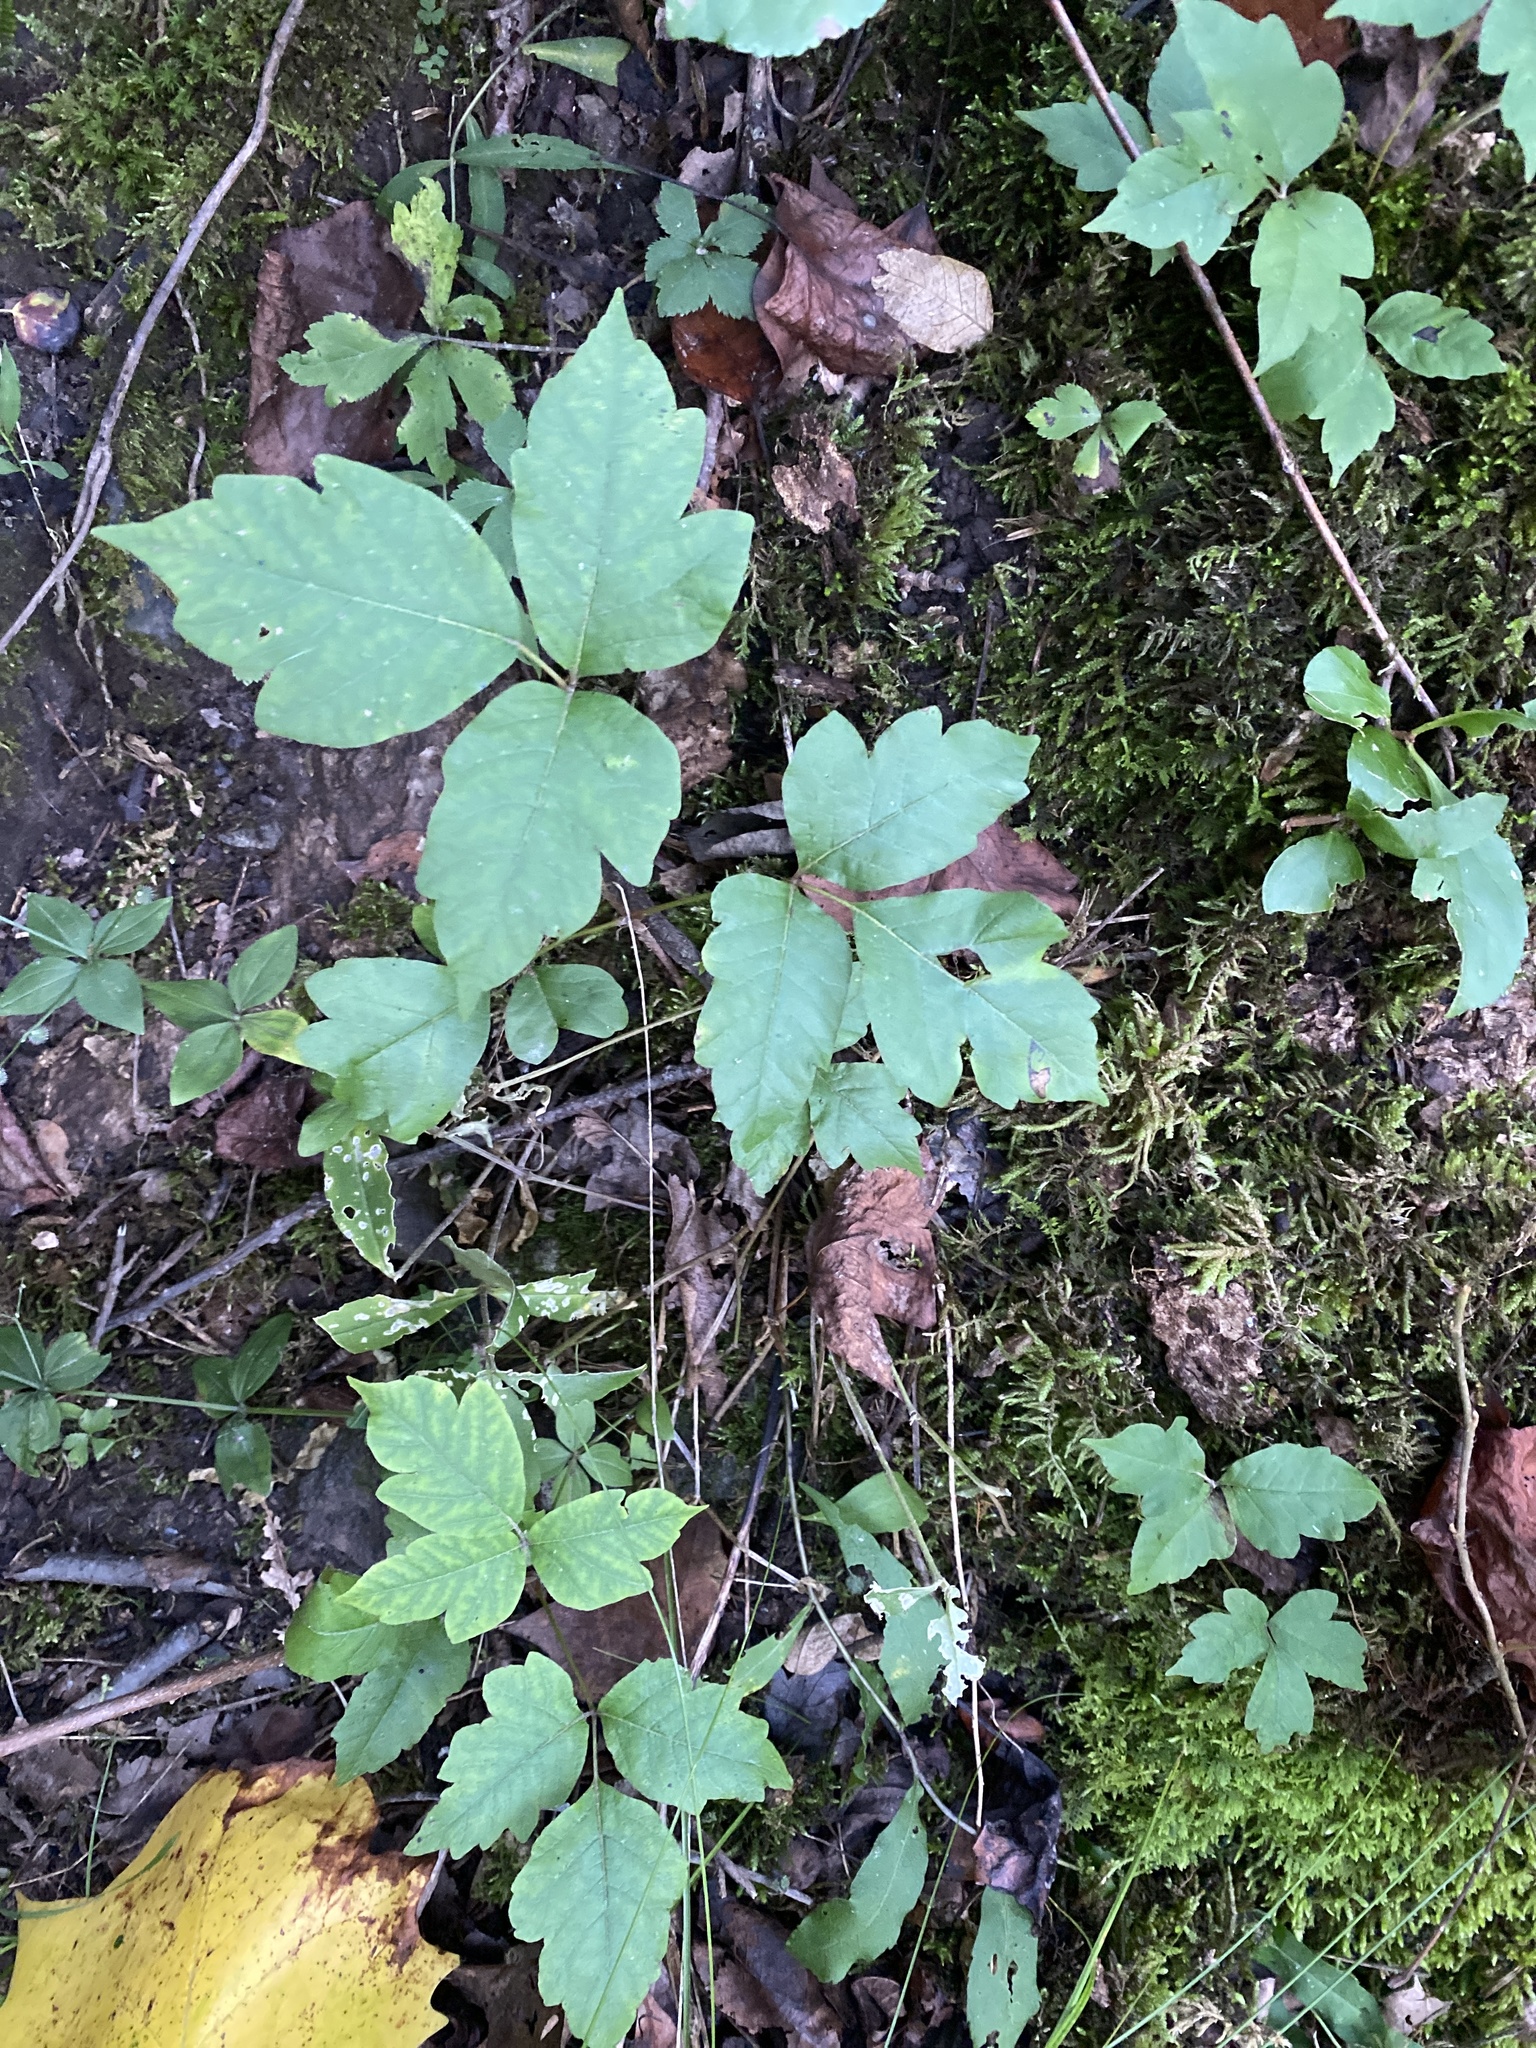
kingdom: Plantae
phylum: Tracheophyta
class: Magnoliopsida
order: Sapindales
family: Anacardiaceae
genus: Toxicodendron
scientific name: Toxicodendron radicans
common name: Poison ivy
